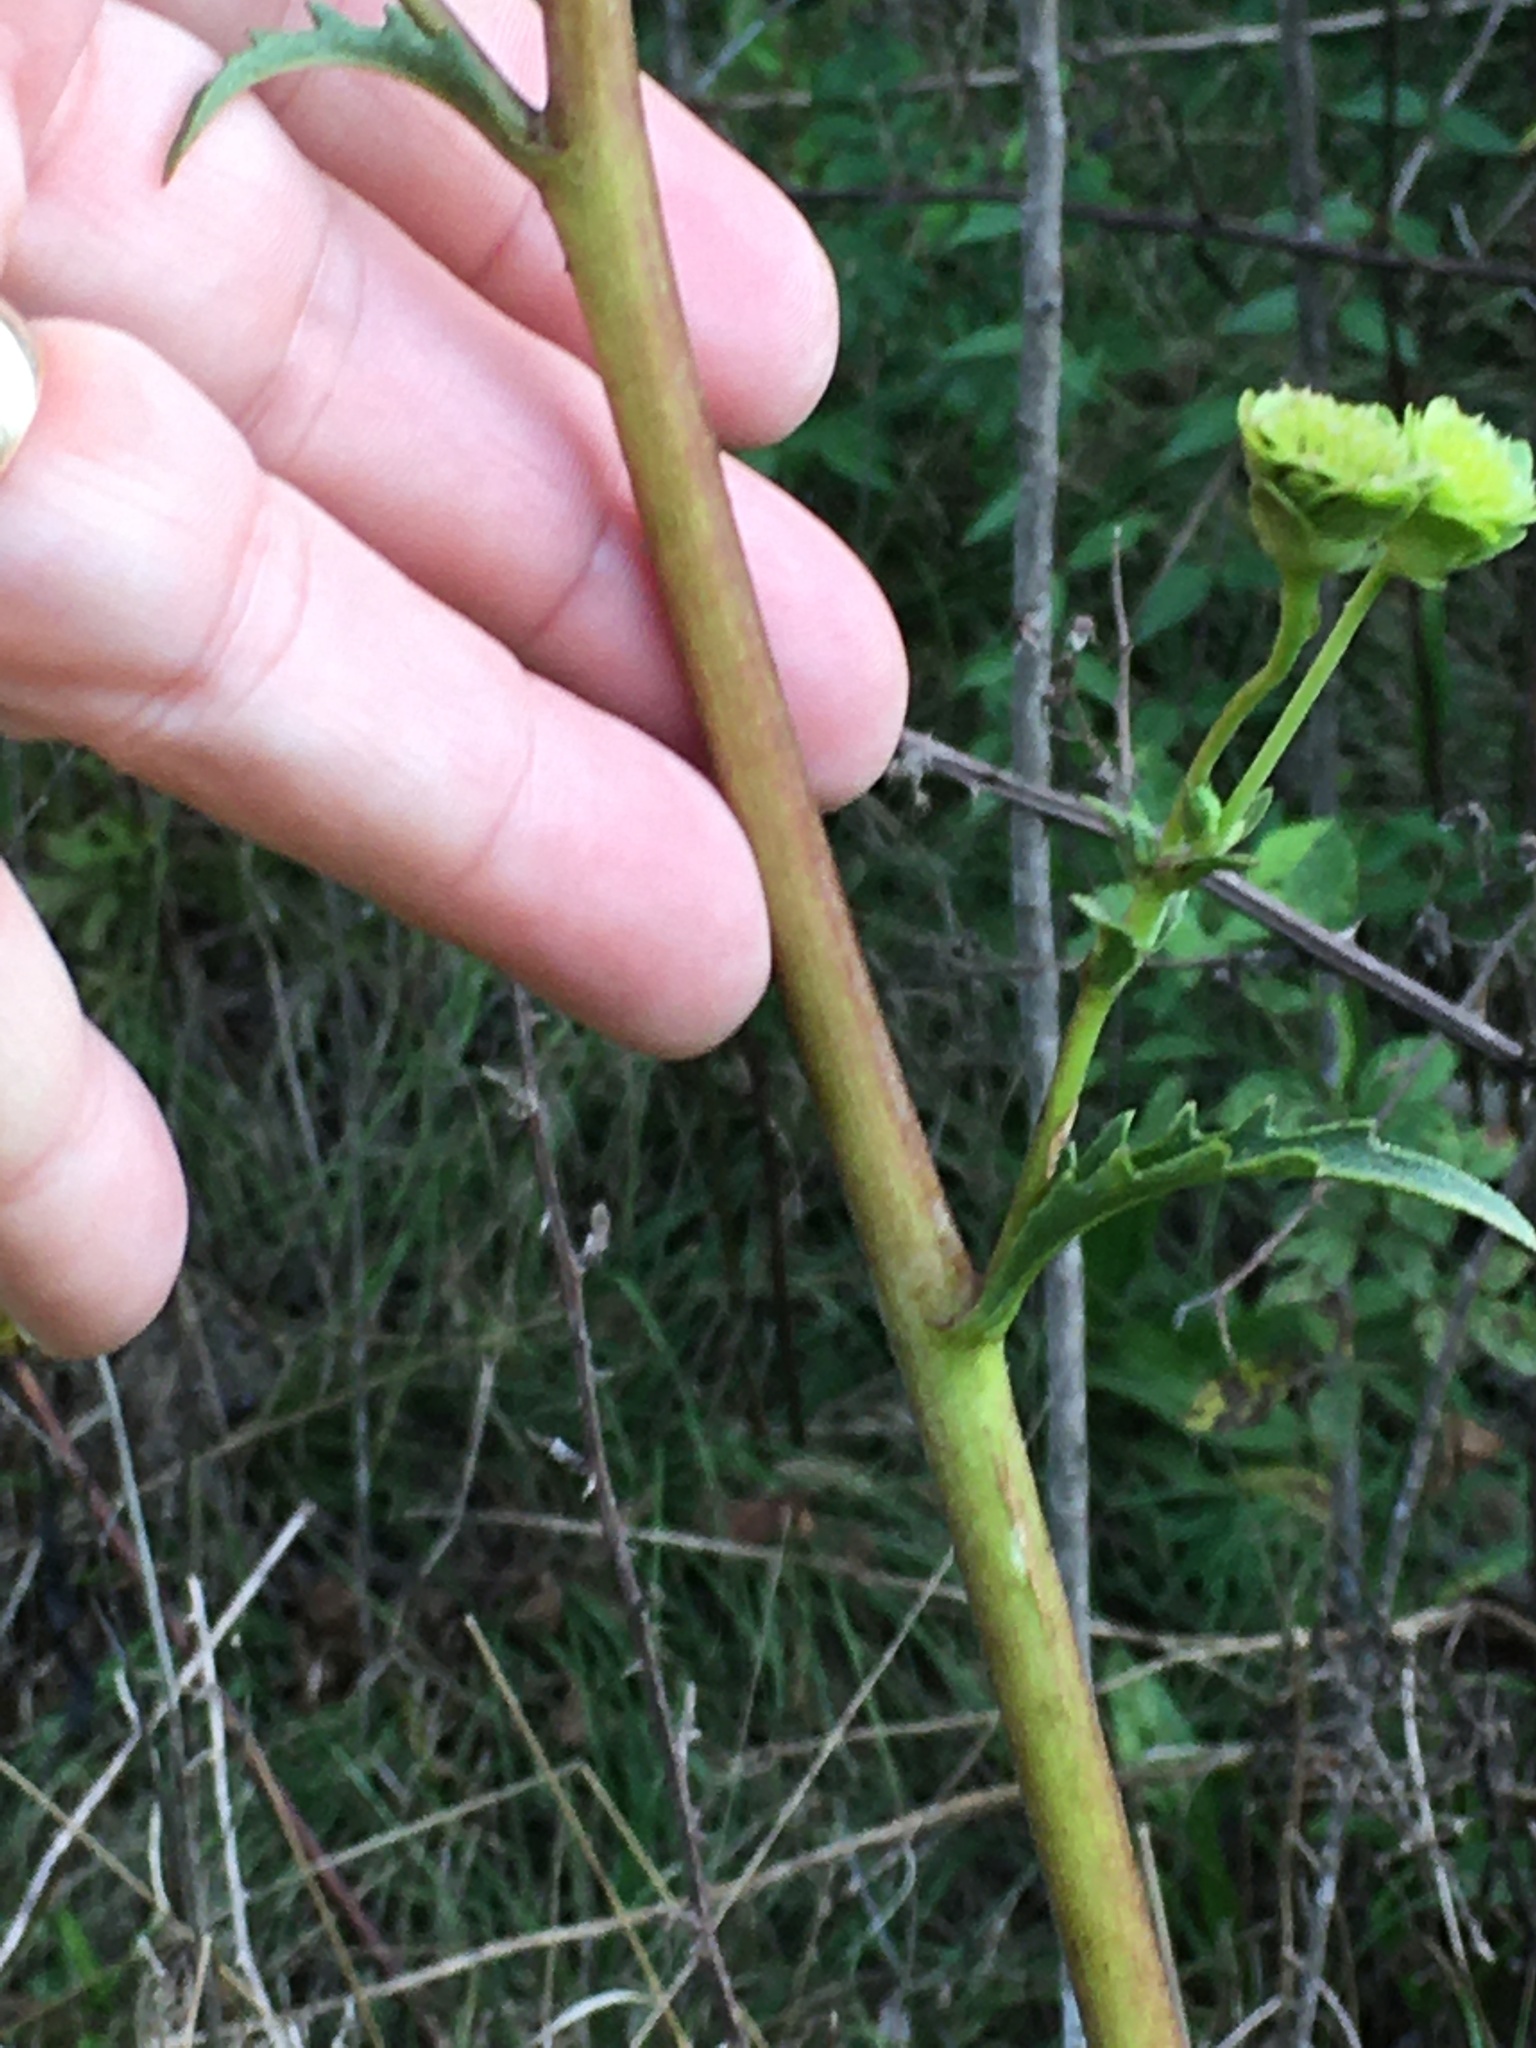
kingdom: Plantae
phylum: Tracheophyta
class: Magnoliopsida
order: Asterales
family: Asteraceae
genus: Silphium
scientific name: Silphium compositum
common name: Lesser basal-leaf rosinweed
